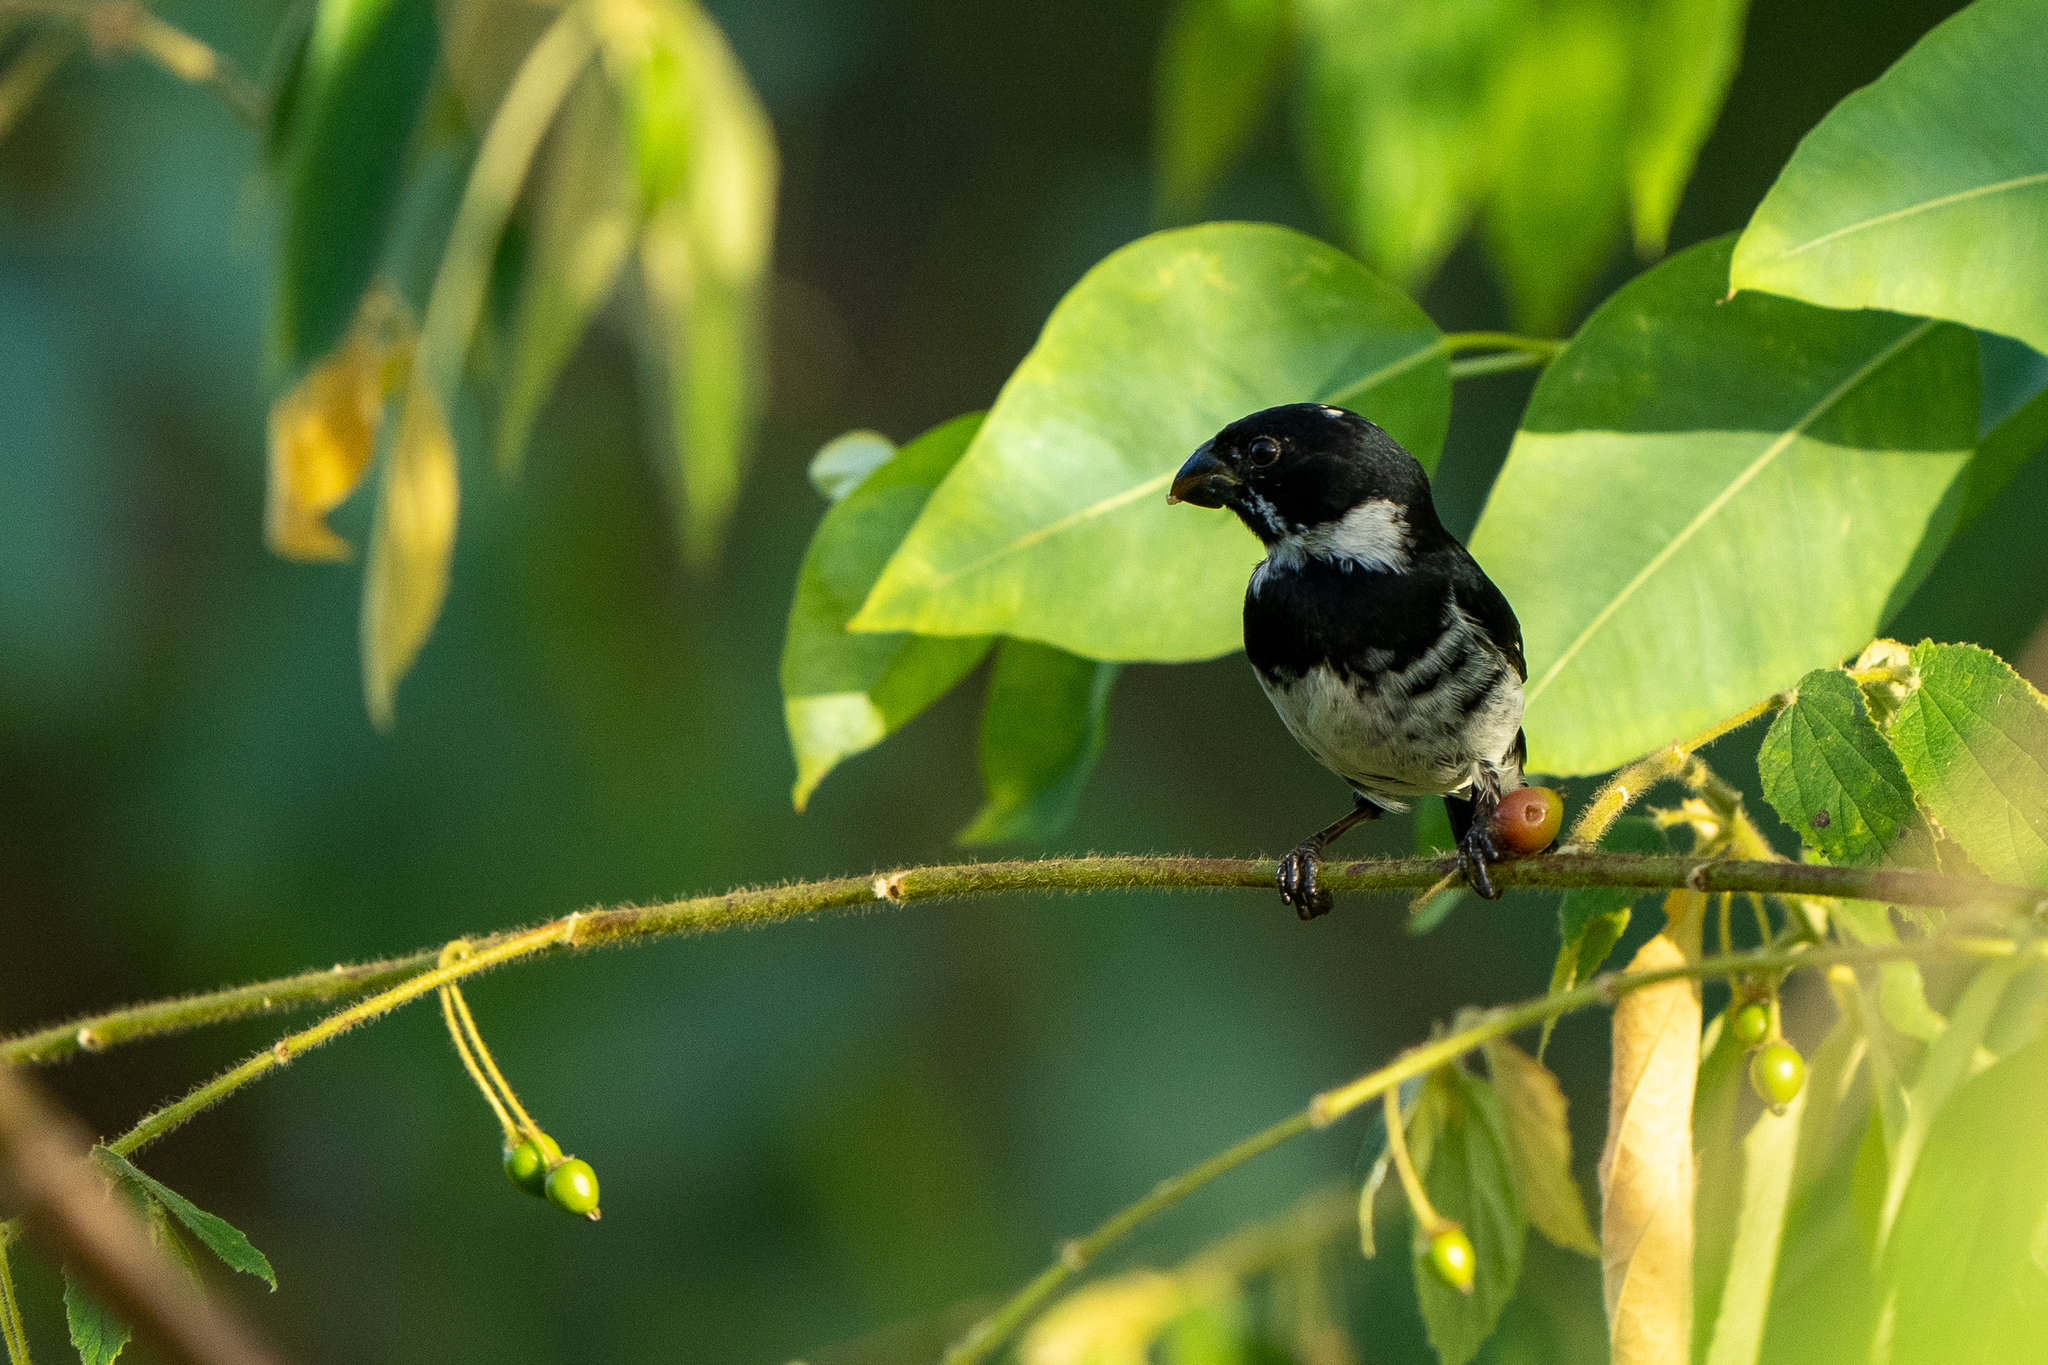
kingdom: Animalia
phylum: Chordata
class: Aves
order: Passeriformes
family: Thraupidae
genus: Sporophila
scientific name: Sporophila corvina
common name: Variable seedeater
